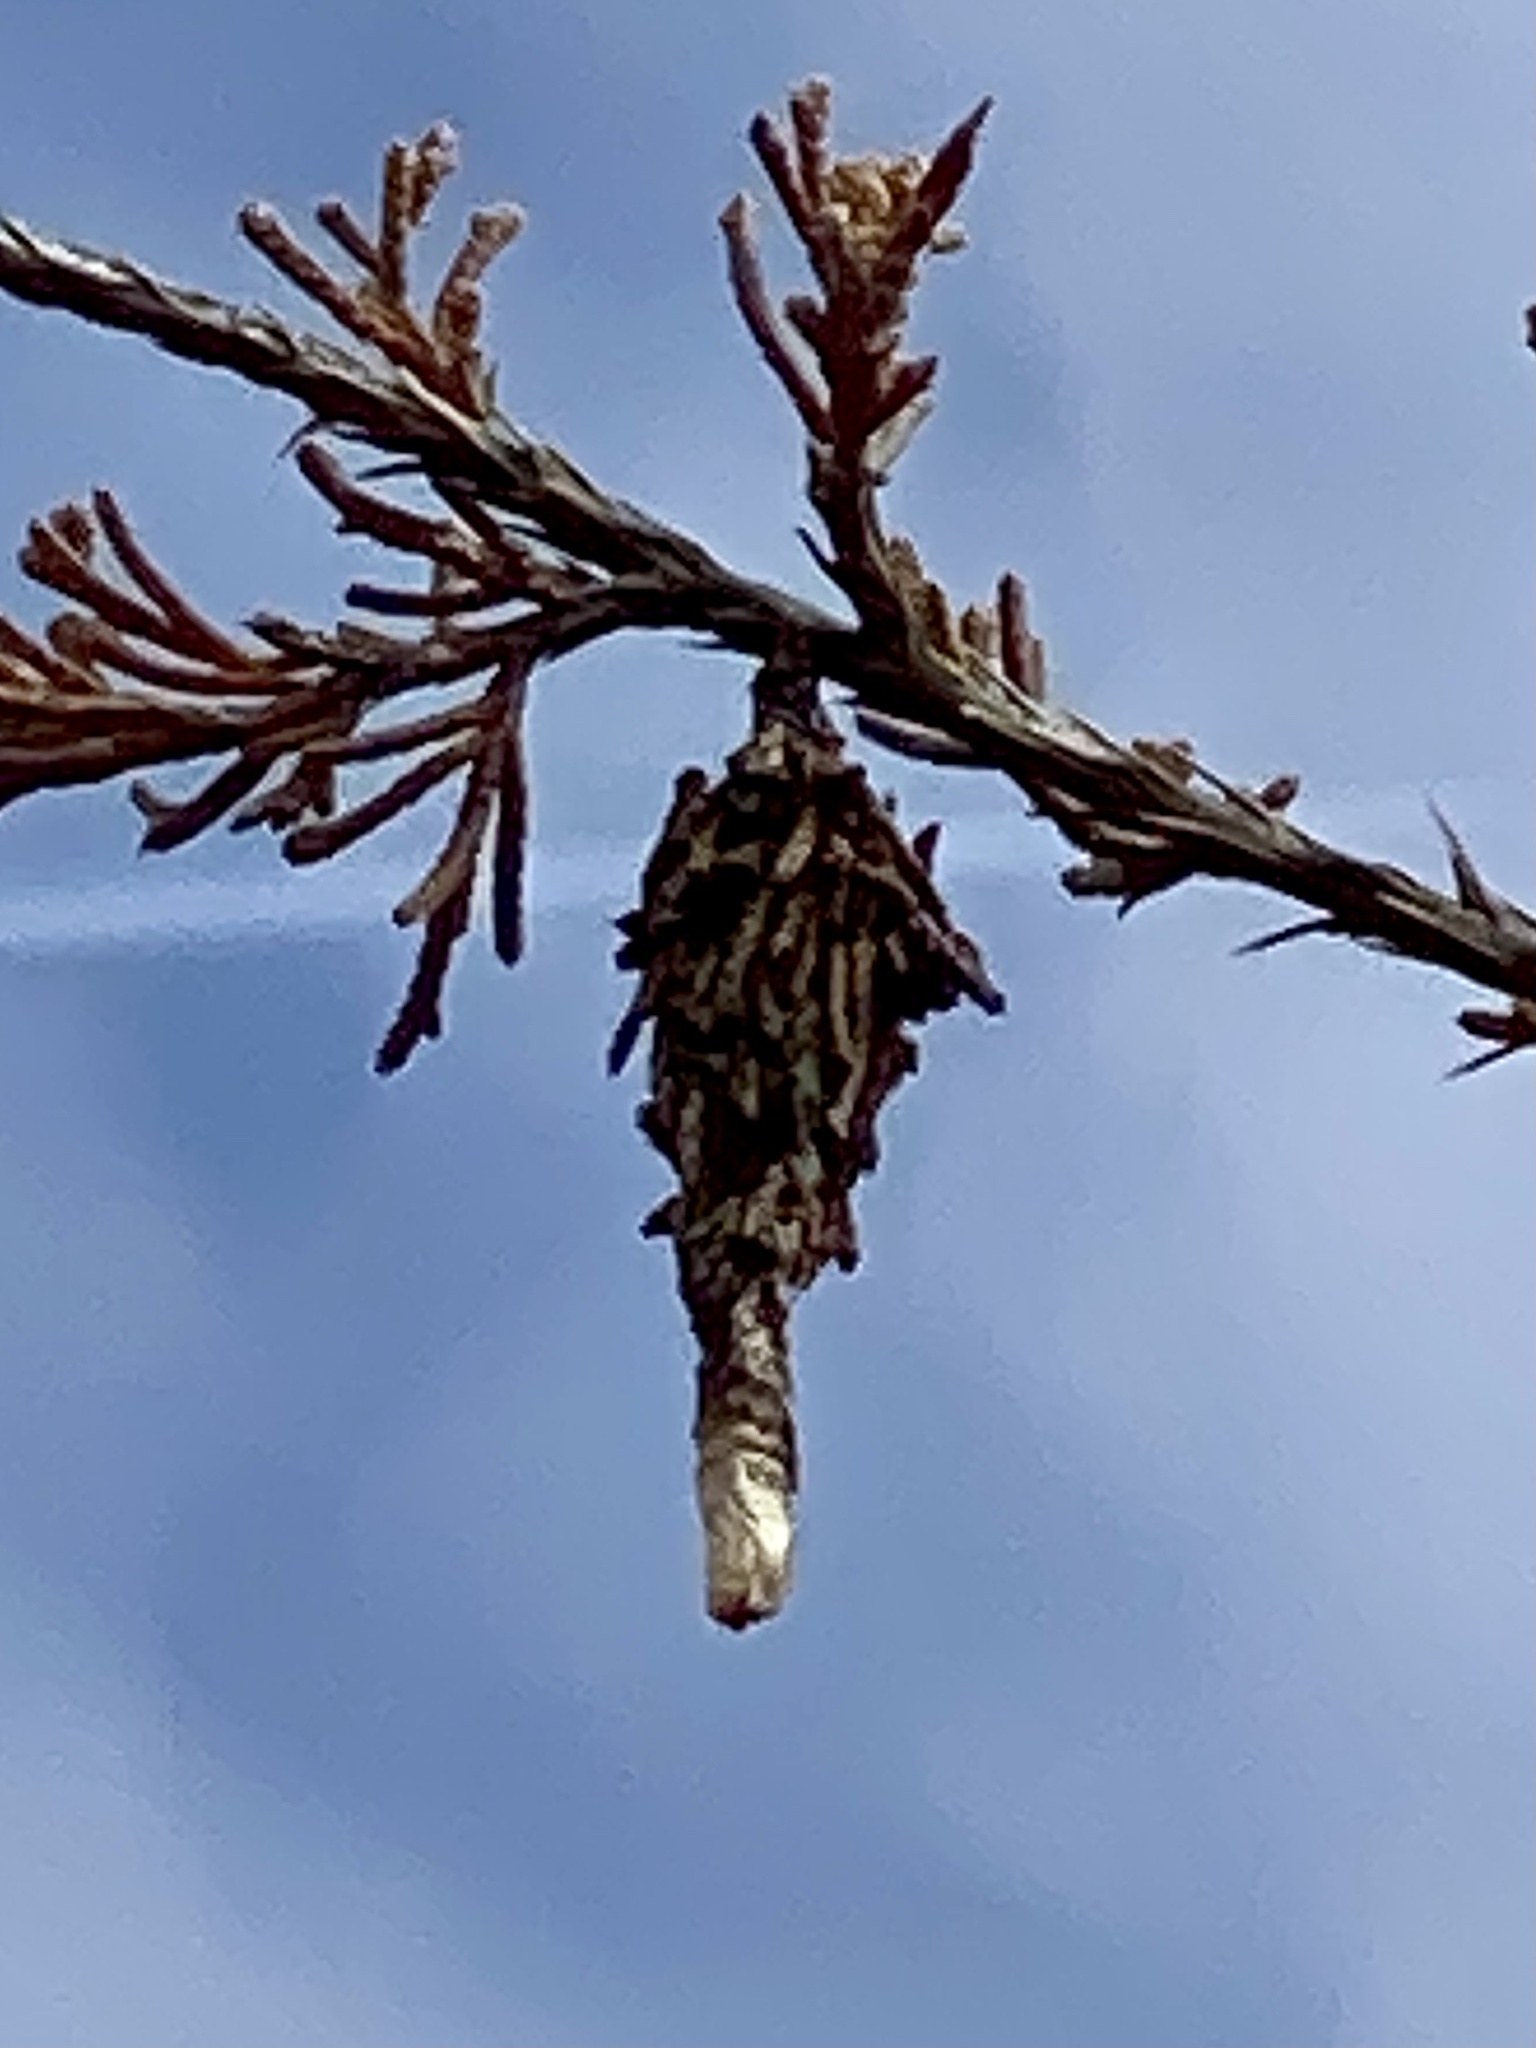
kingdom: Animalia
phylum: Arthropoda
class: Insecta
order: Lepidoptera
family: Psychidae
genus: Thyridopteryx
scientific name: Thyridopteryx ephemeraeformis
